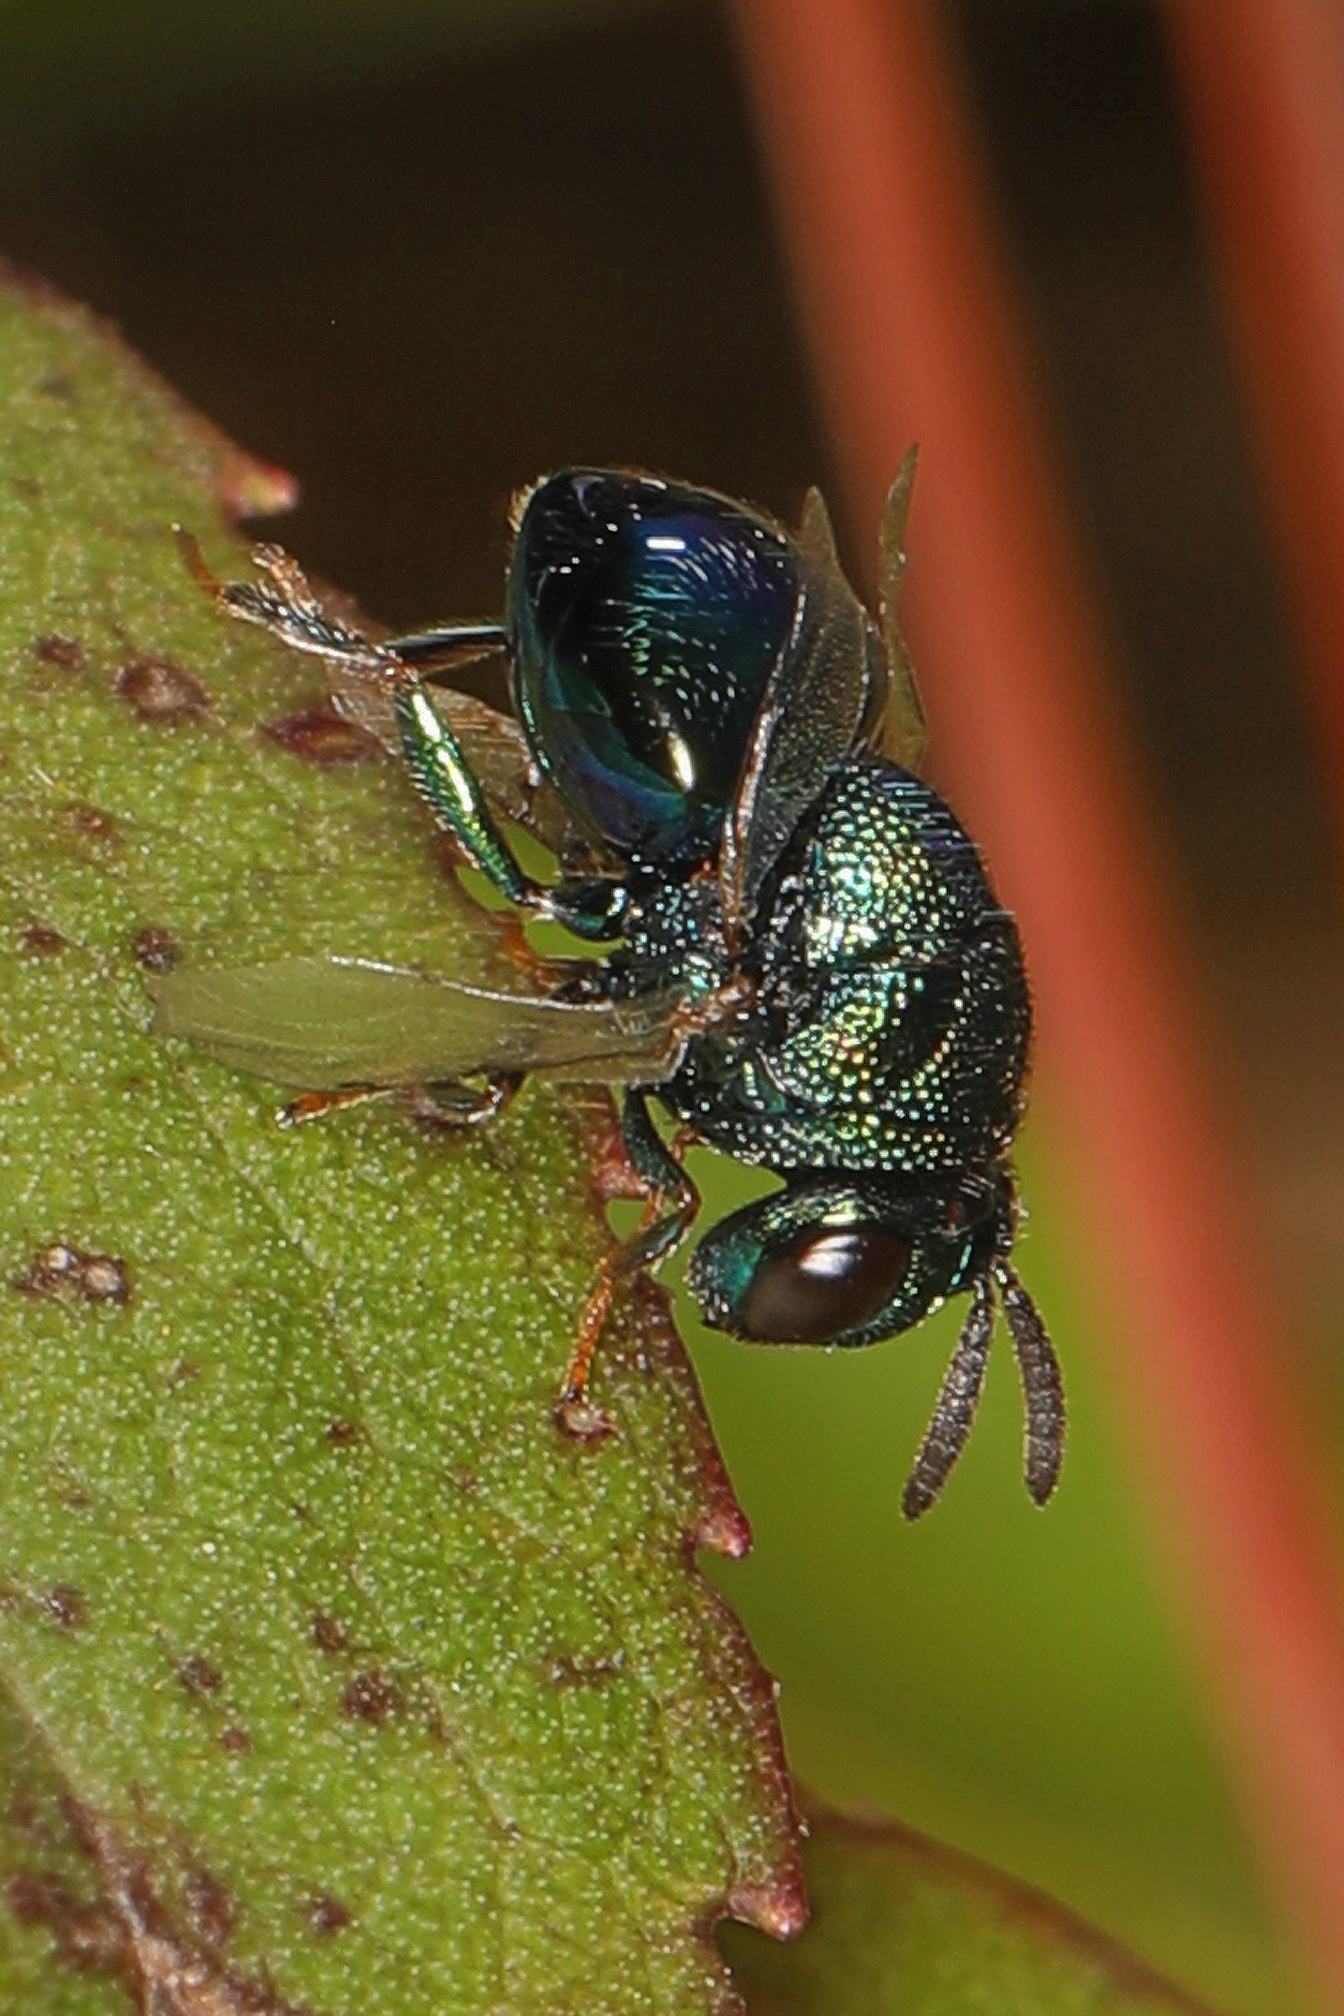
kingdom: Animalia
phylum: Arthropoda
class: Insecta
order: Hymenoptera
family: Perilampidae
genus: Perilampus
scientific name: Perilampus hyalinus
